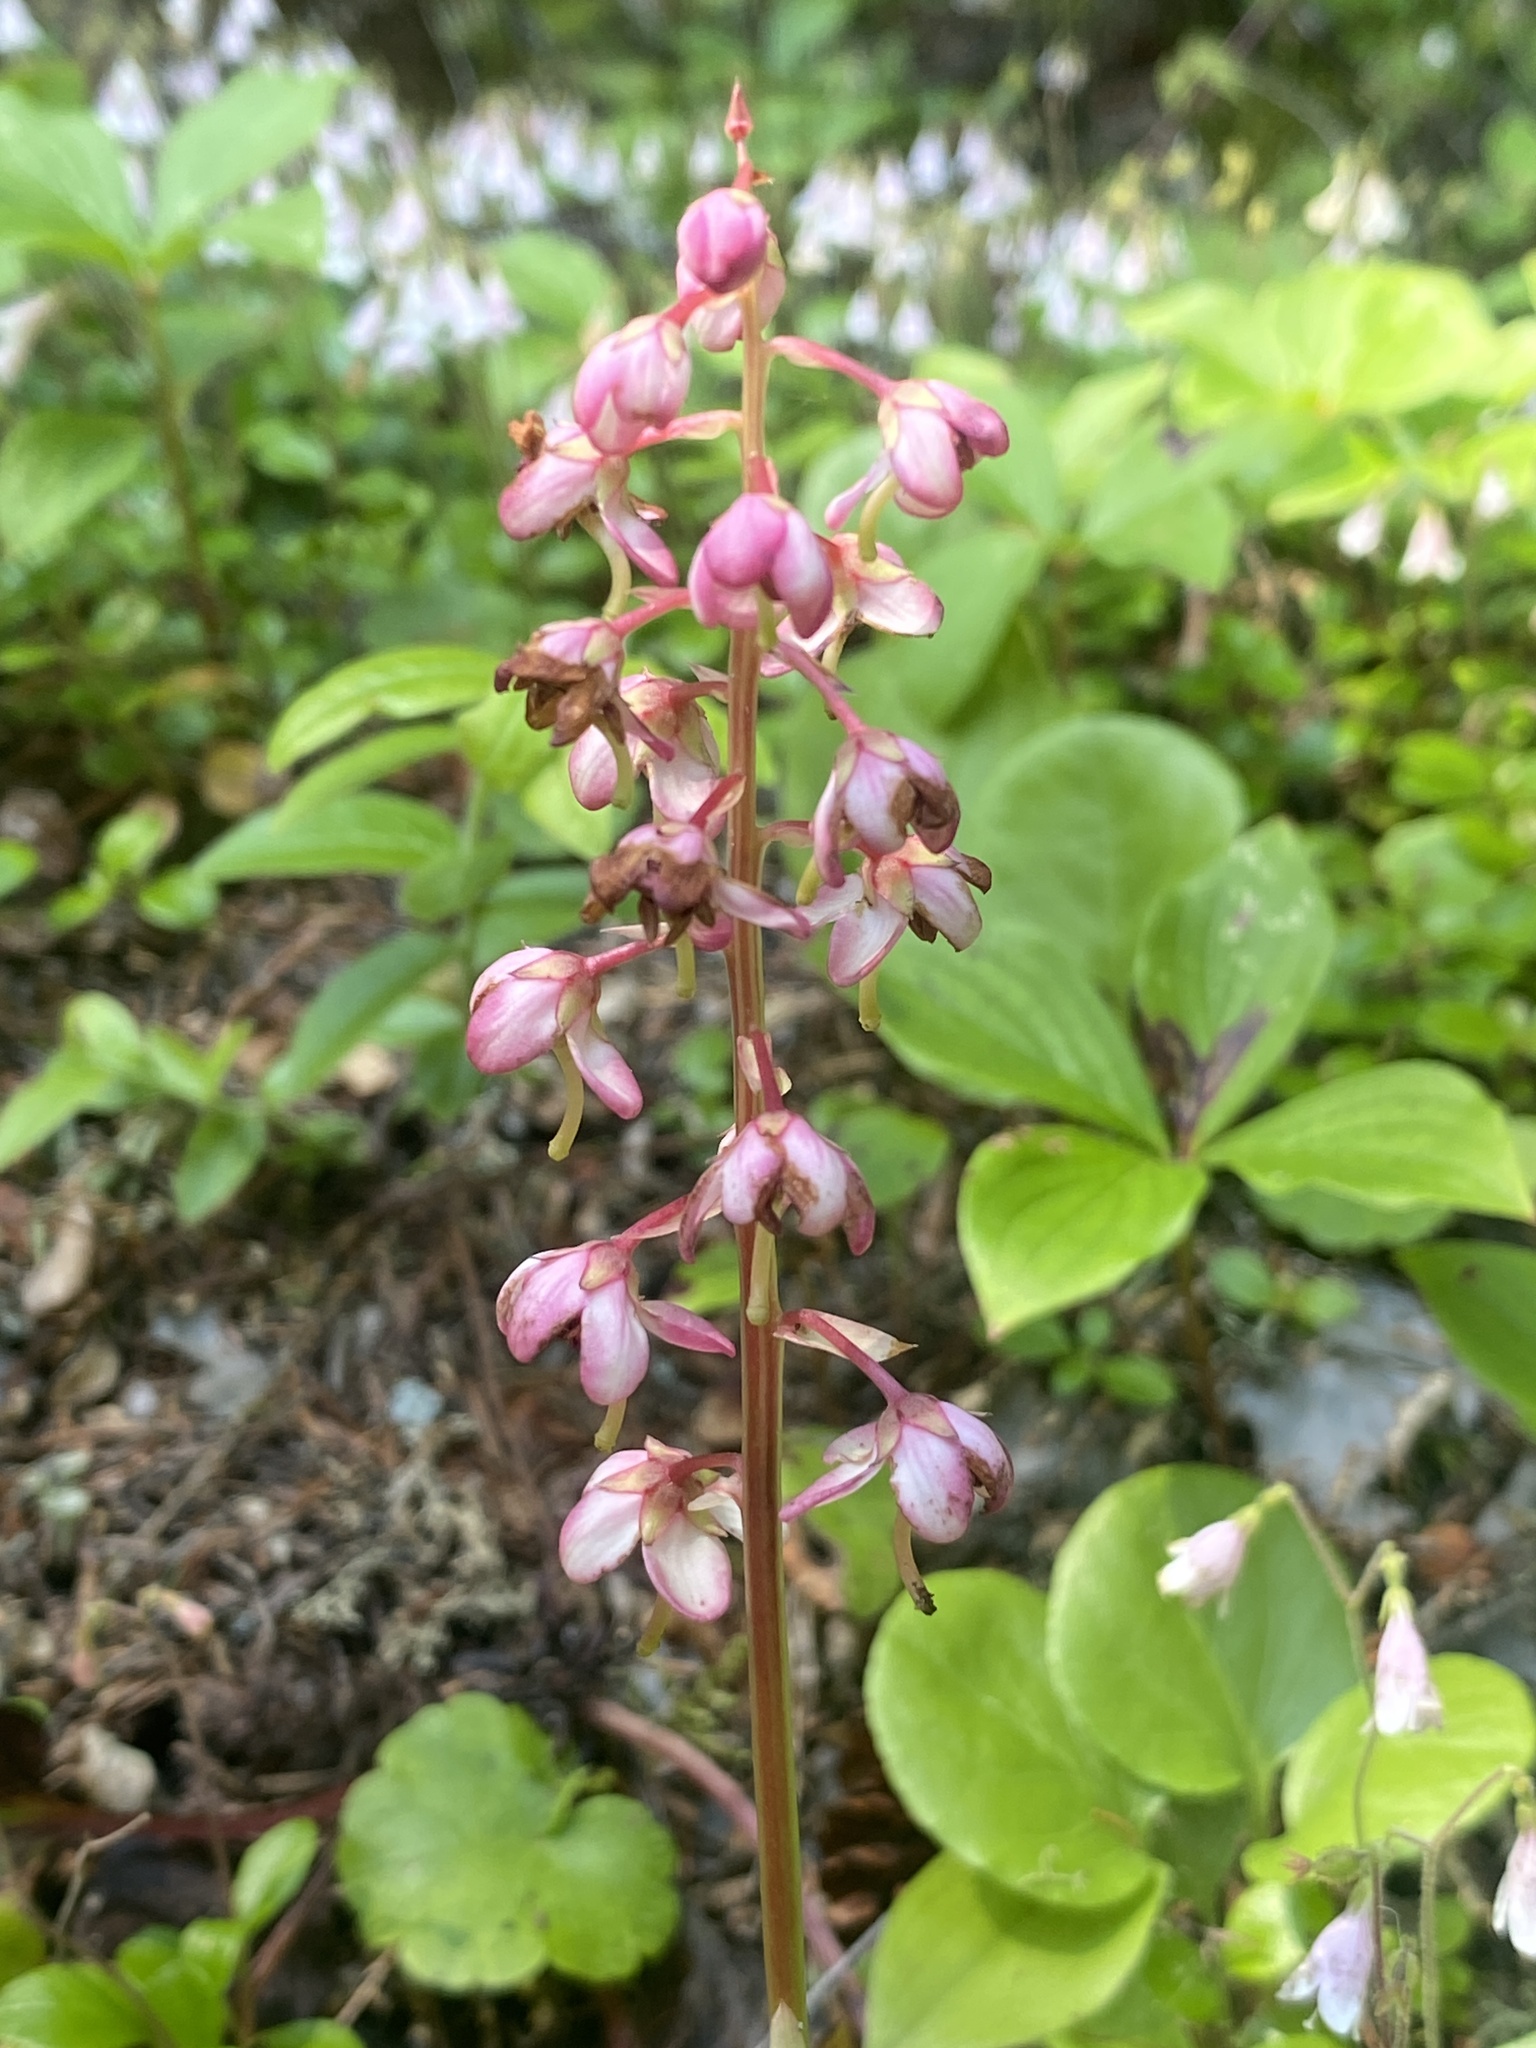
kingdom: Plantae
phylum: Tracheophyta
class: Magnoliopsida
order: Ericales
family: Ericaceae
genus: Pyrola
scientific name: Pyrola asarifolia
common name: Bog wintergreen
